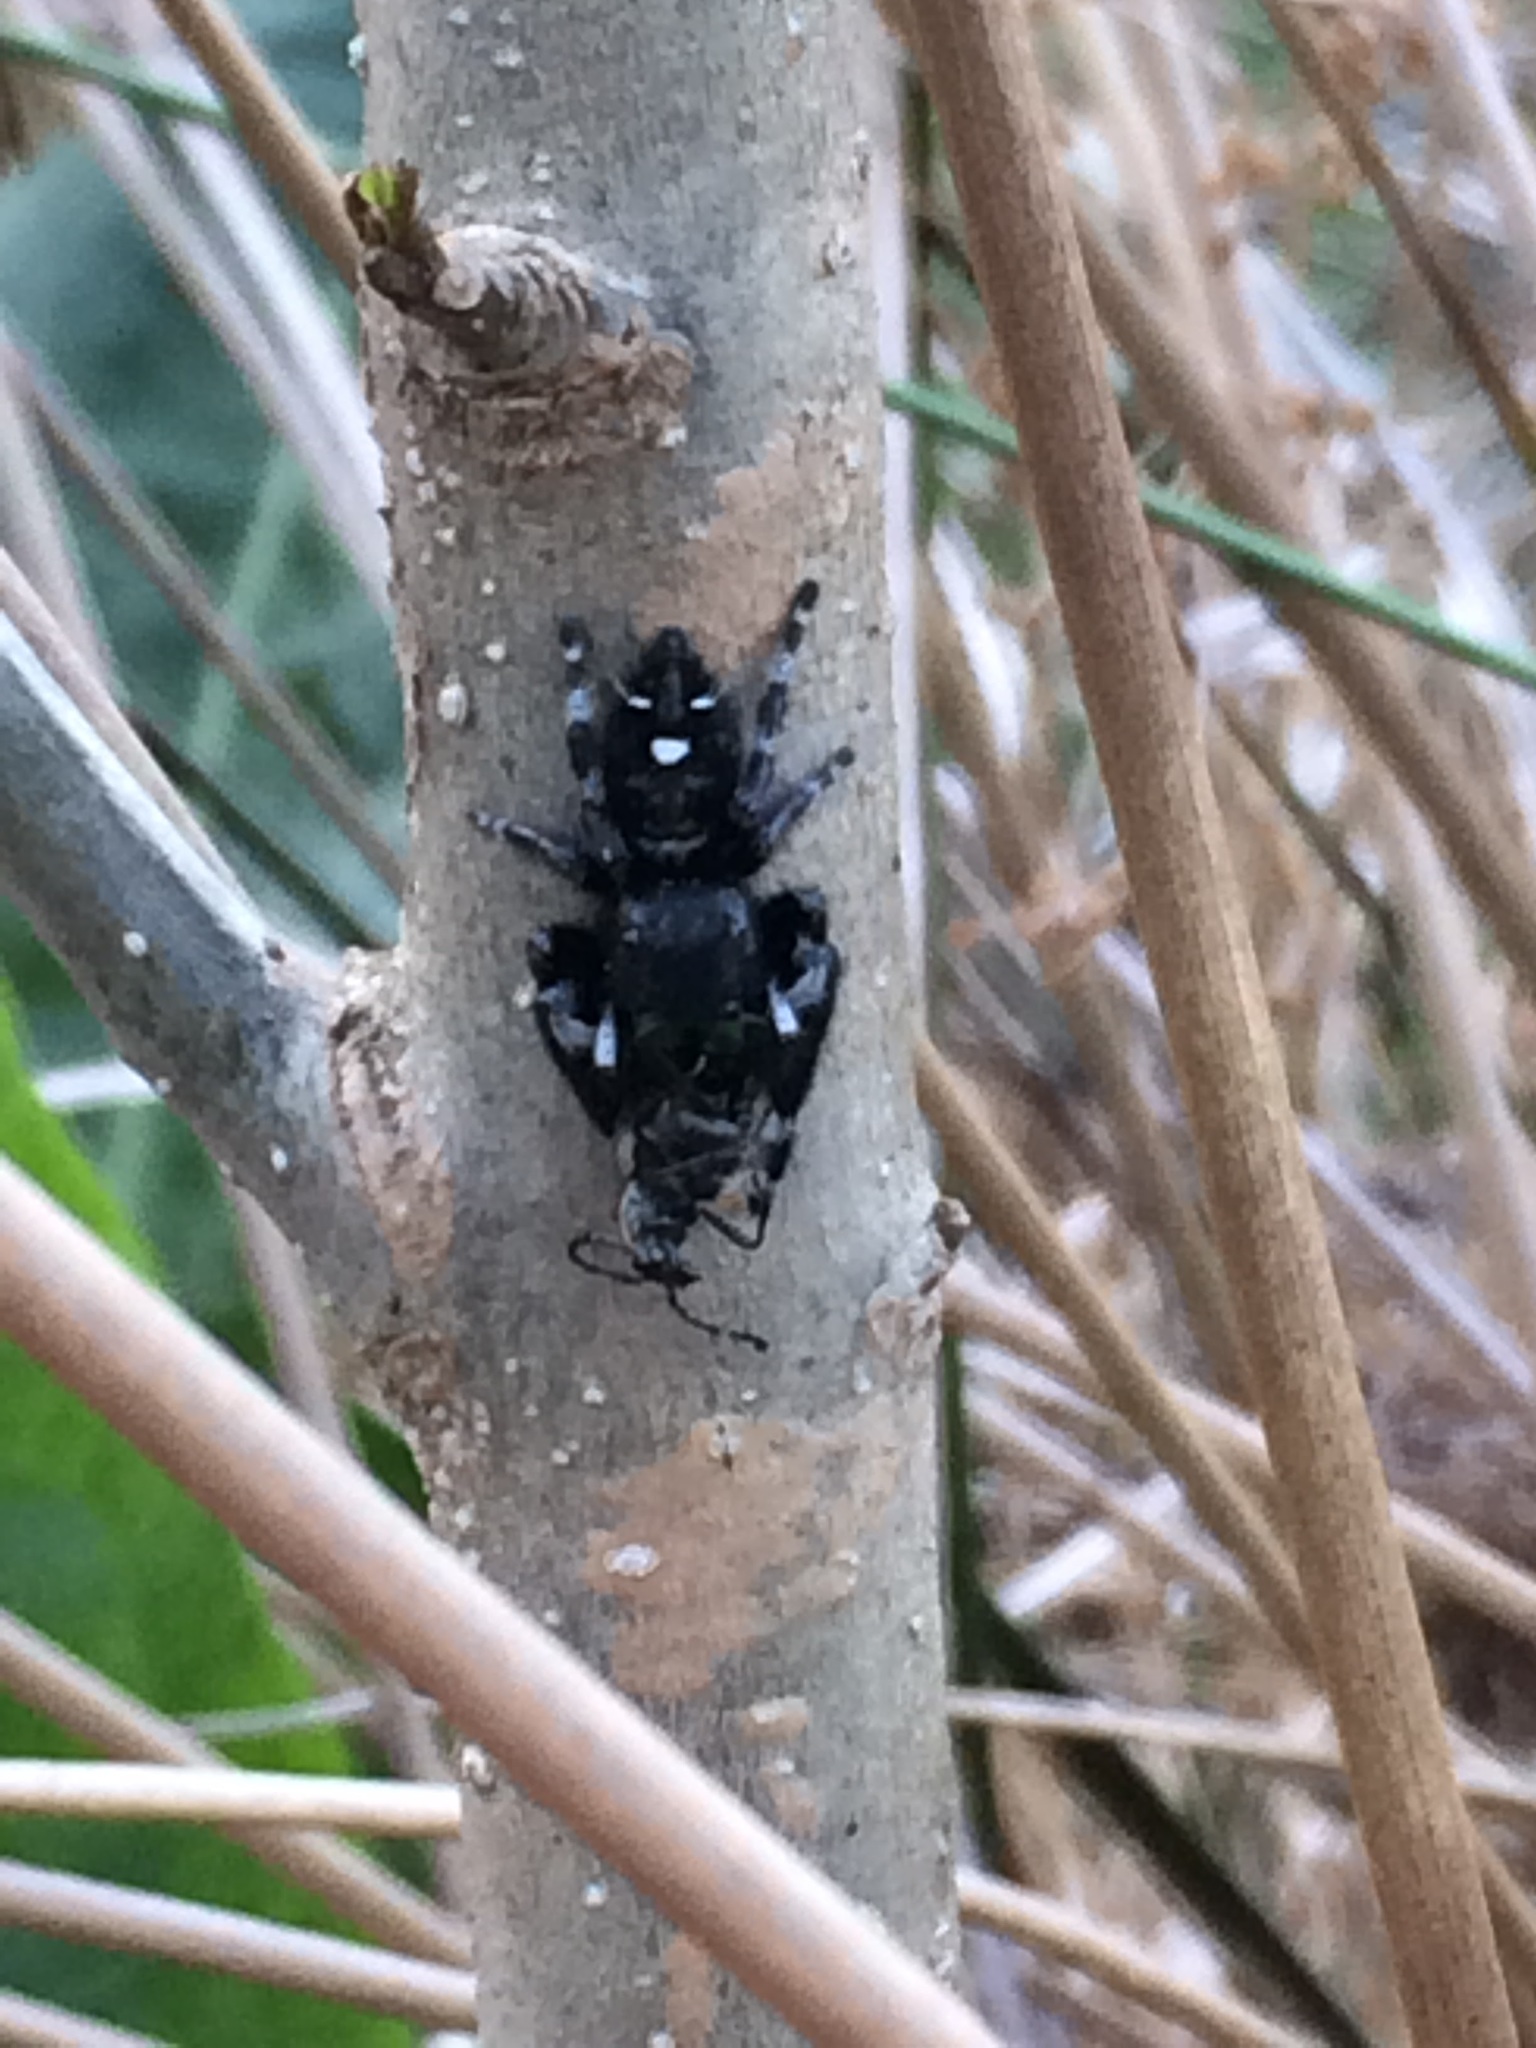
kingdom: Animalia
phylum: Arthropoda
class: Arachnida
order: Araneae
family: Salticidae
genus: Phidippus
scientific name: Phidippus audax
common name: Bold jumper
